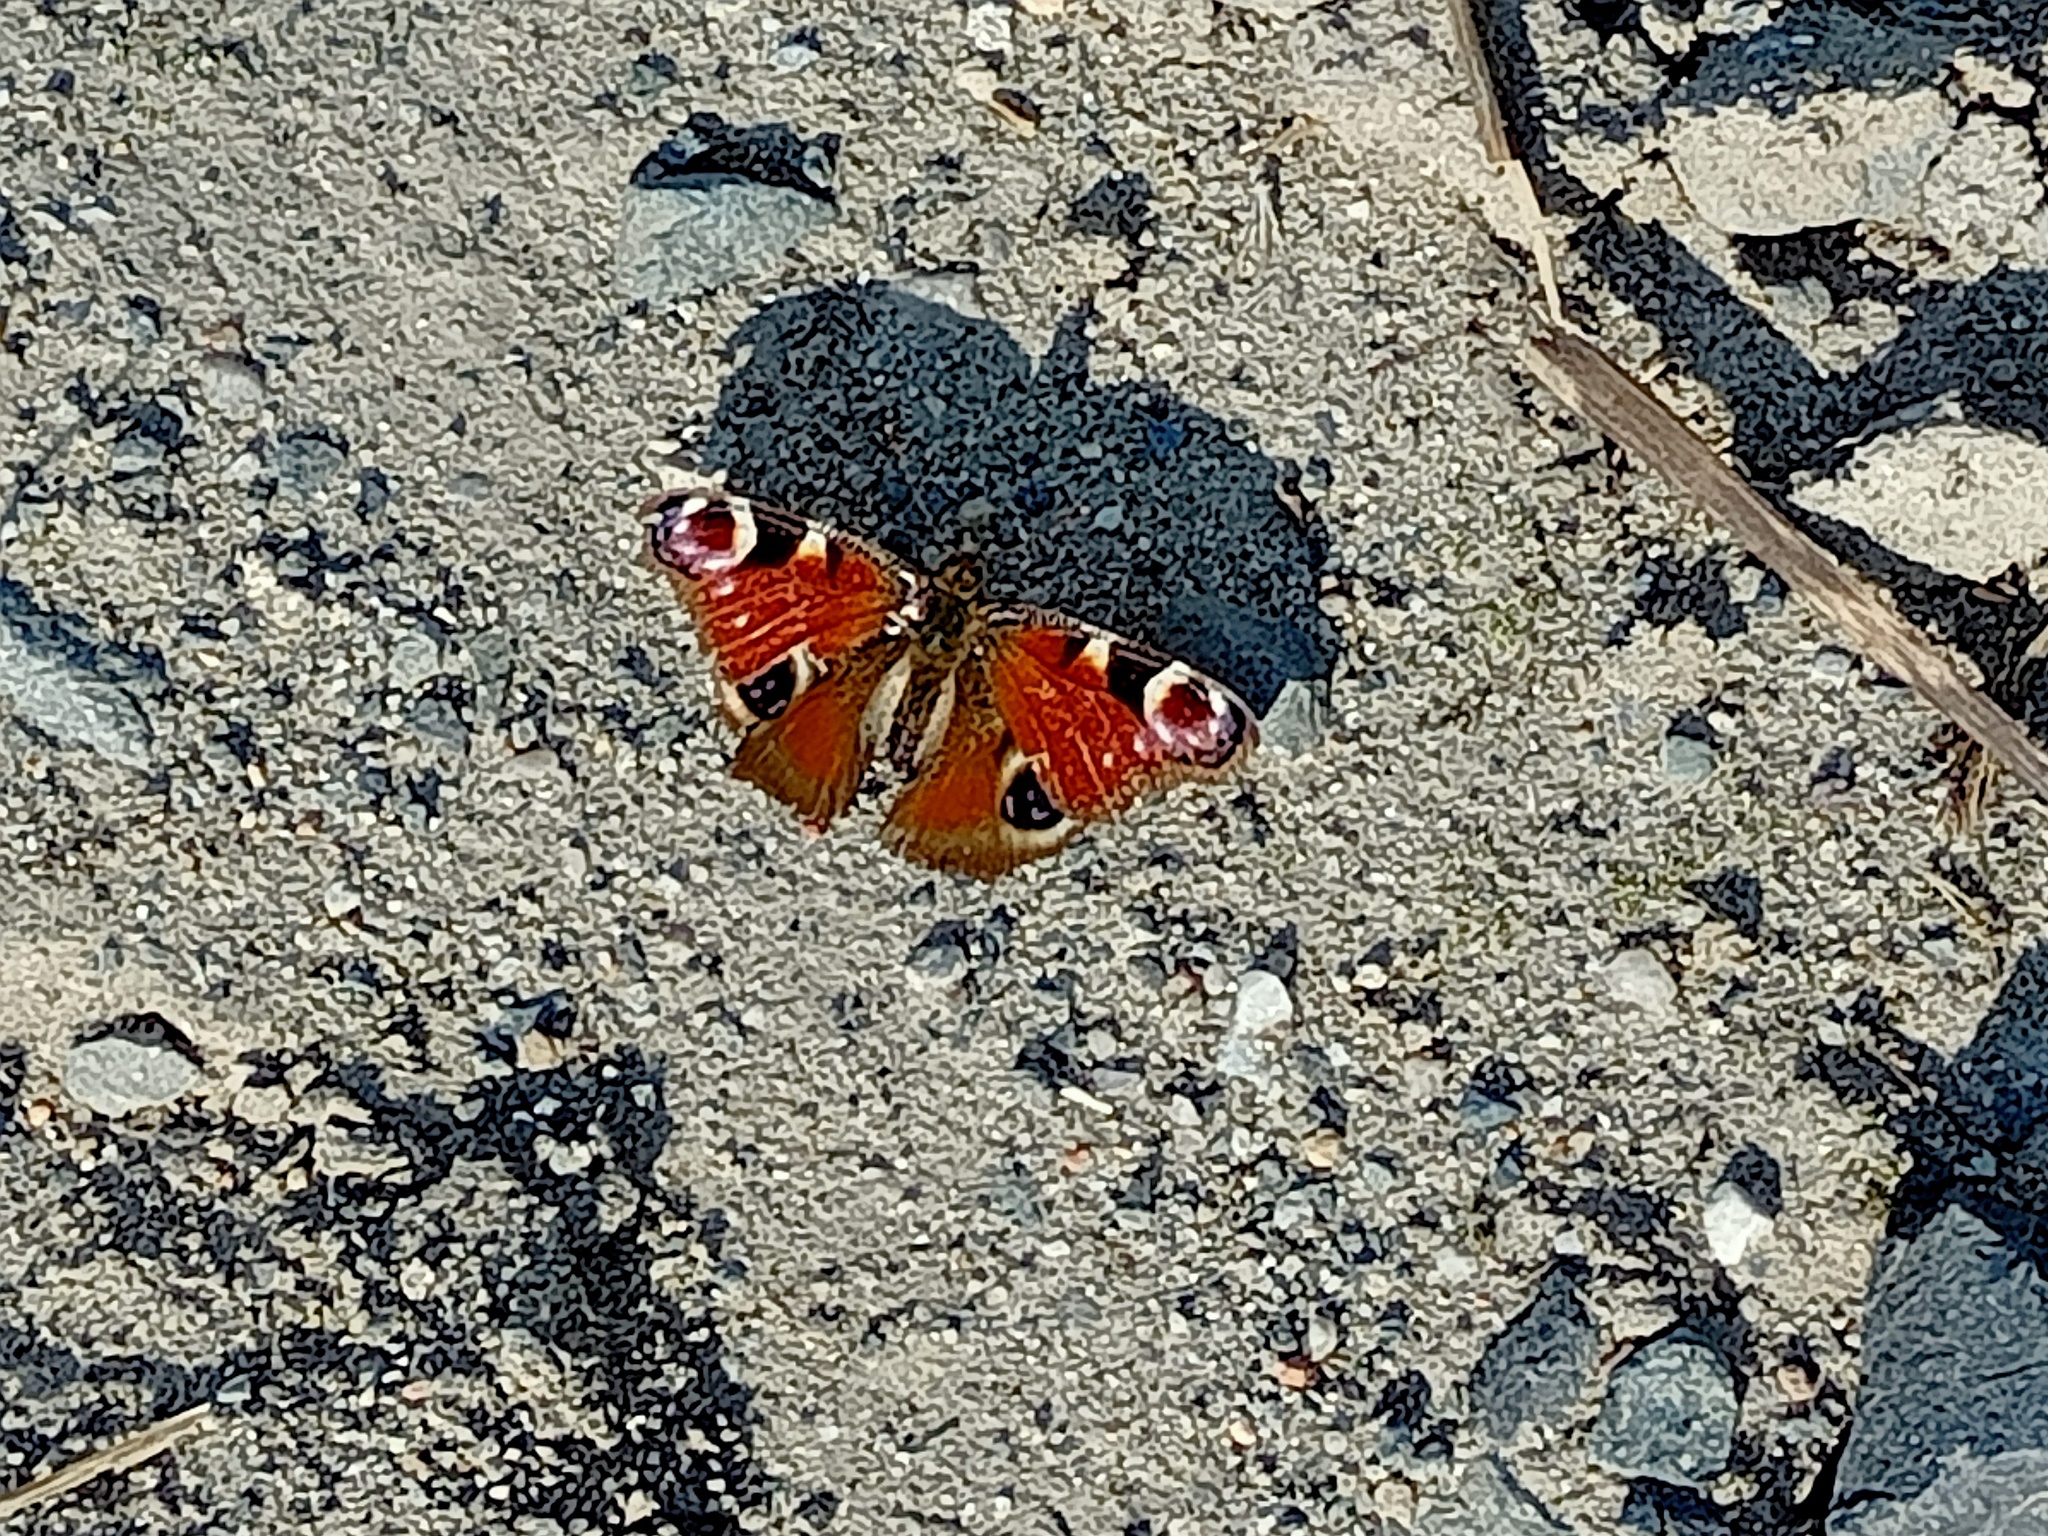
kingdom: Animalia
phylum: Arthropoda
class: Insecta
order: Lepidoptera
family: Nymphalidae
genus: Aglais
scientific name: Aglais io
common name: Peacock
